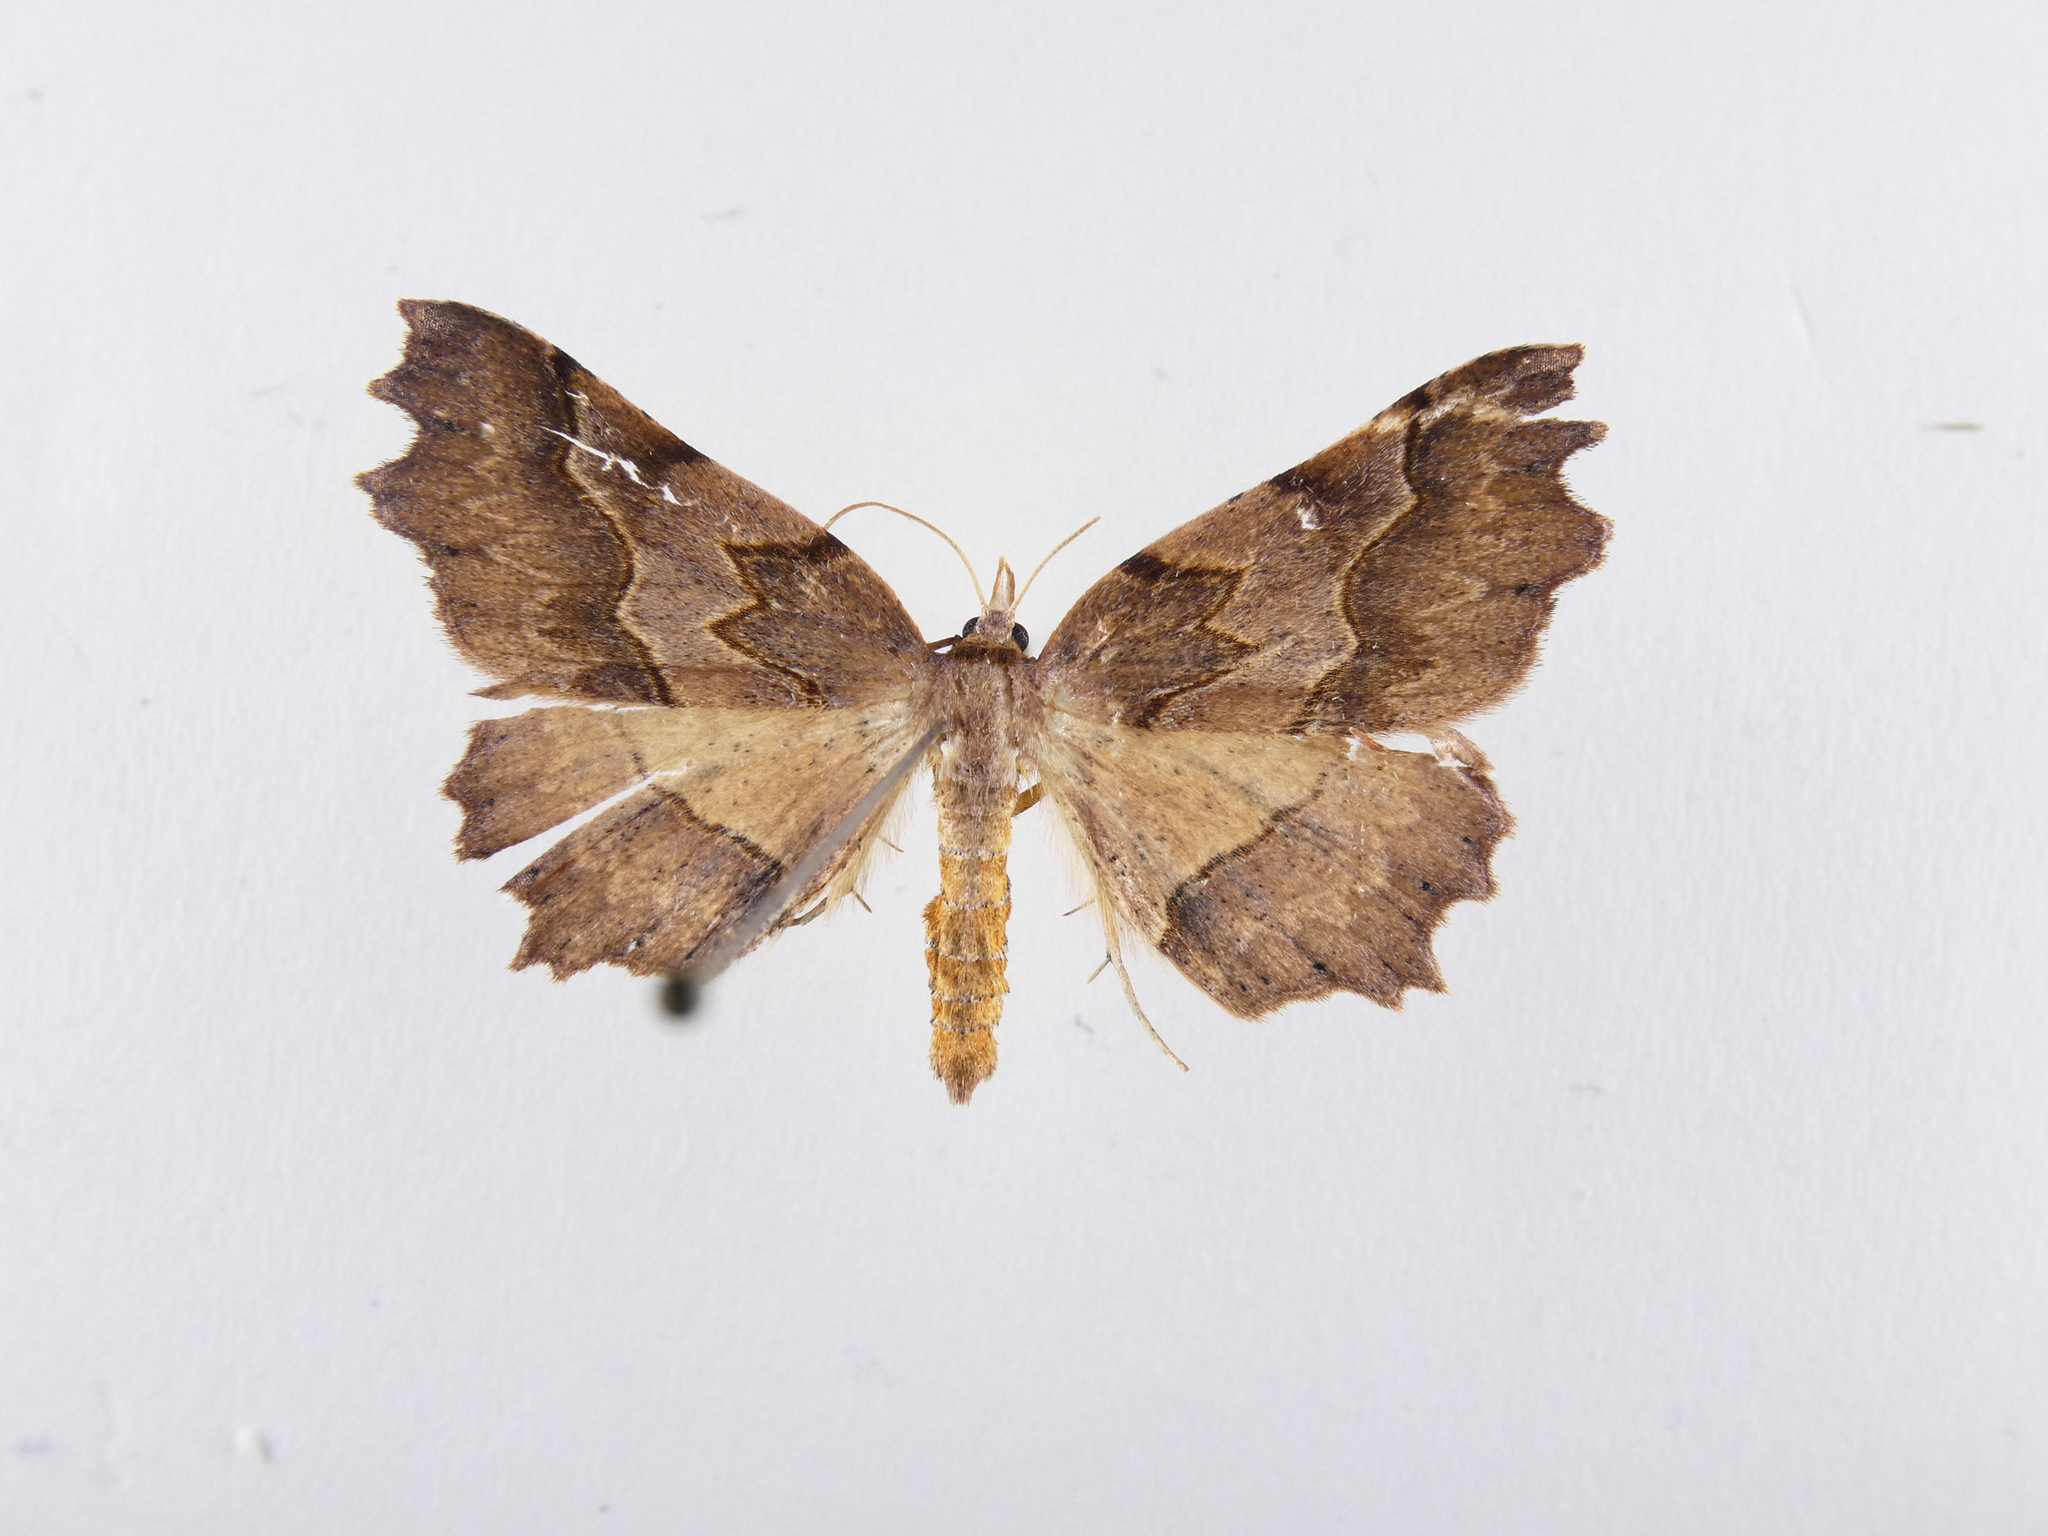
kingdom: Animalia
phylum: Arthropoda
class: Insecta
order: Lepidoptera
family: Geometridae
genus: Ischalis
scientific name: Ischalis fortinata
